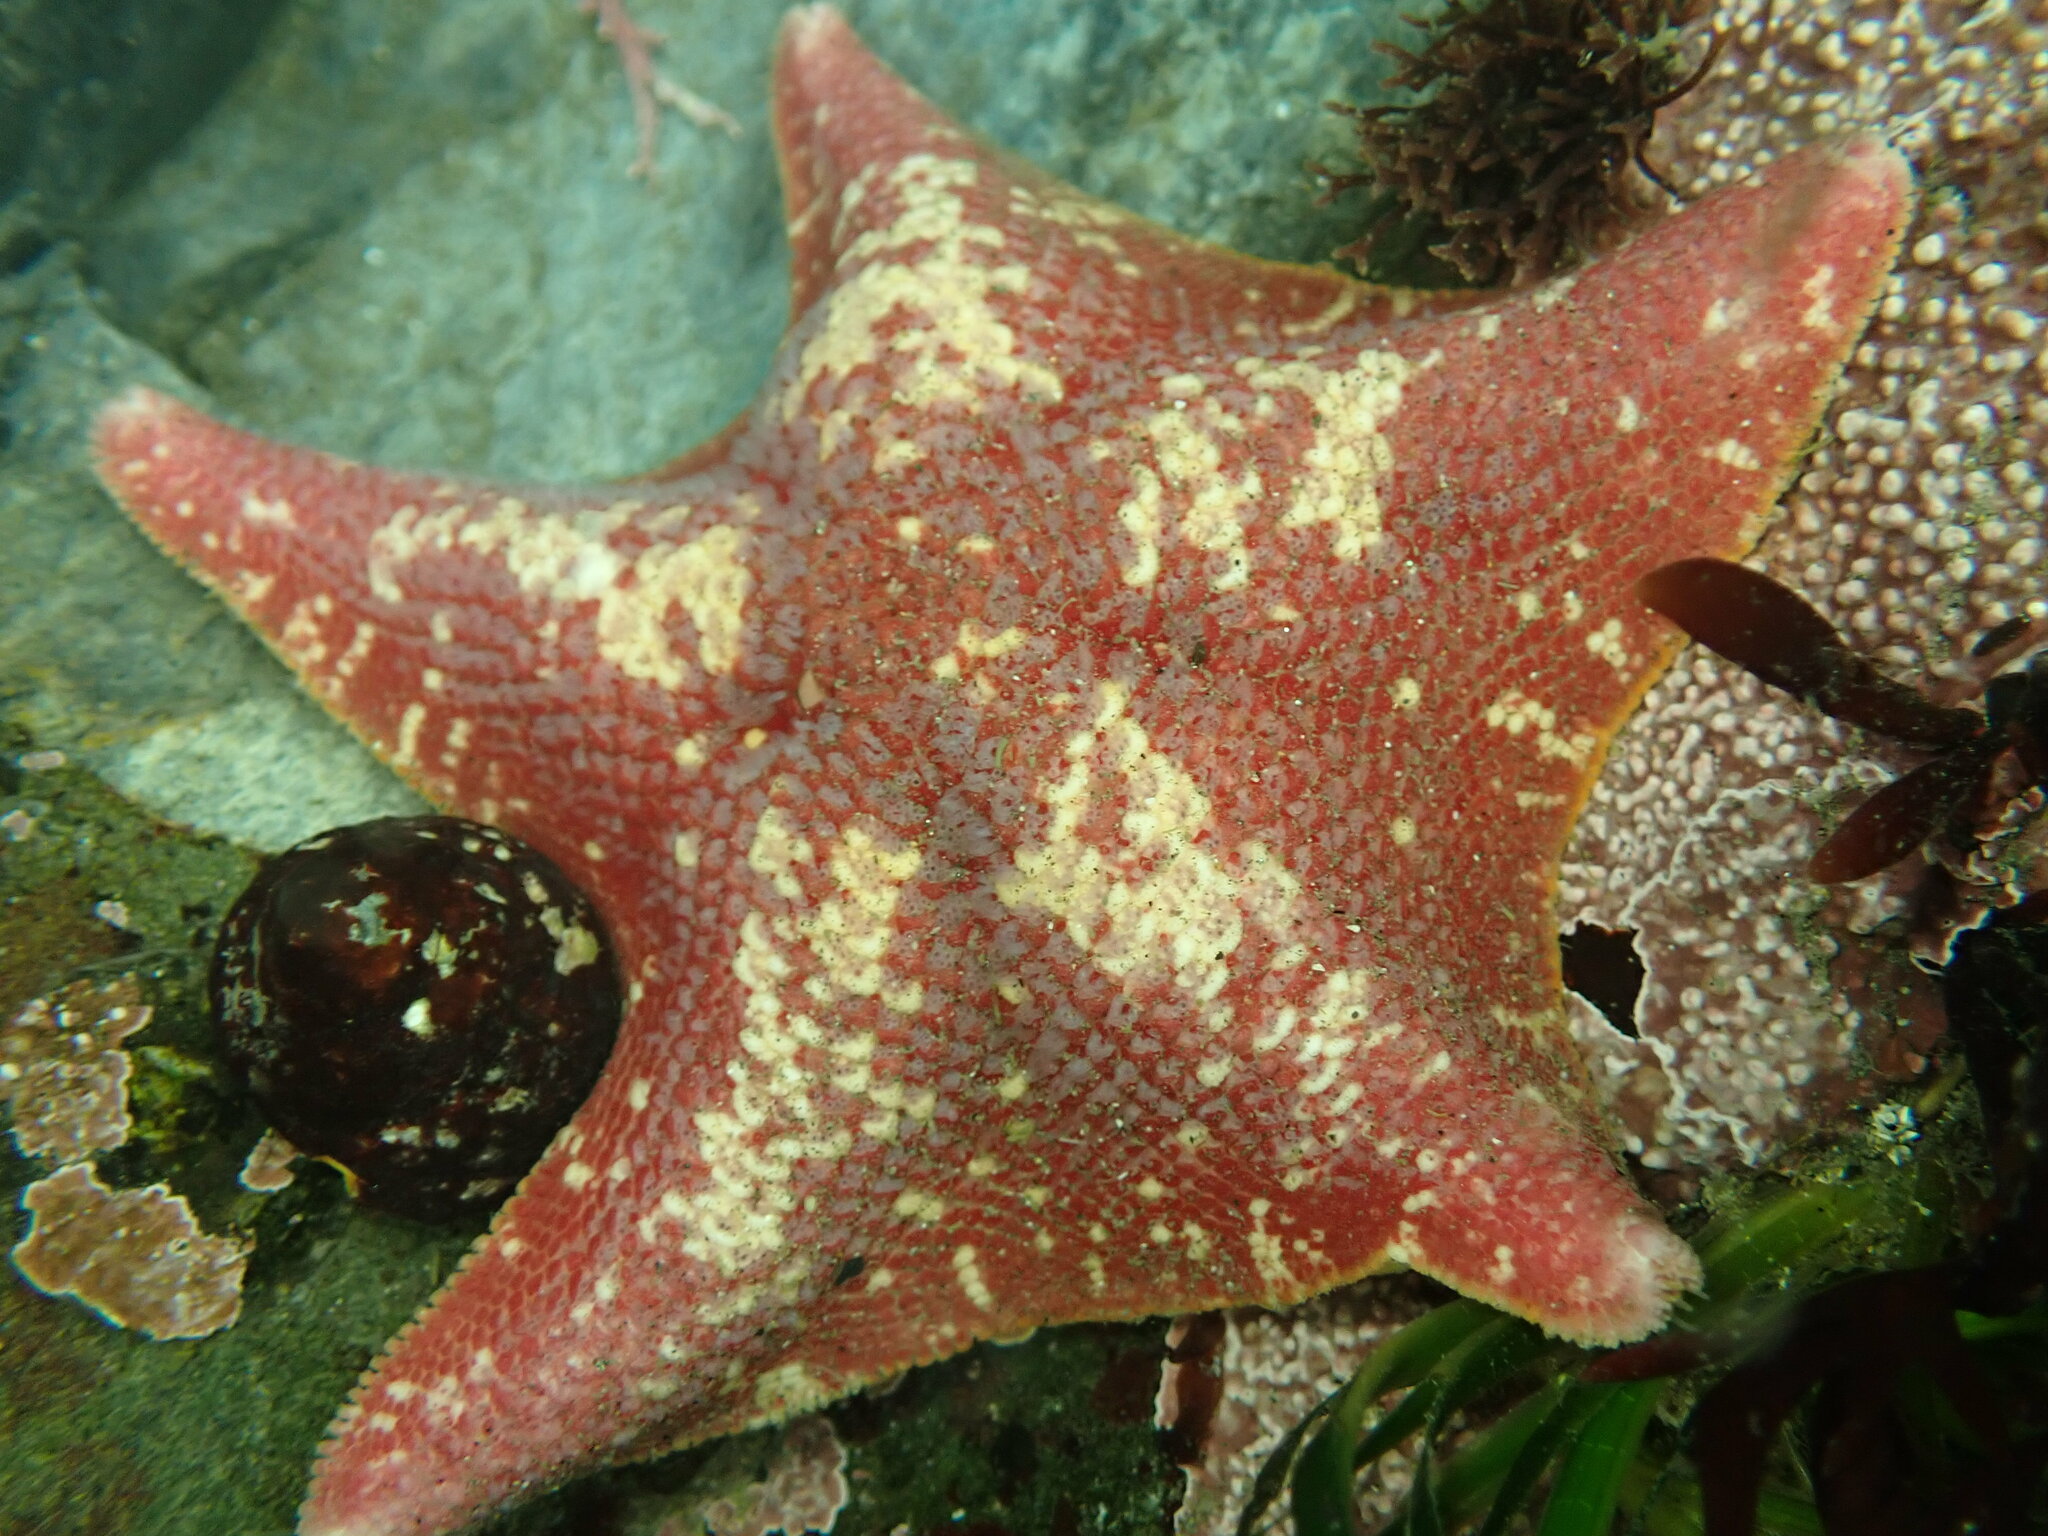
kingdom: Animalia
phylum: Echinodermata
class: Asteroidea
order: Valvatida
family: Asterinidae
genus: Patiria
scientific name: Patiria miniata
